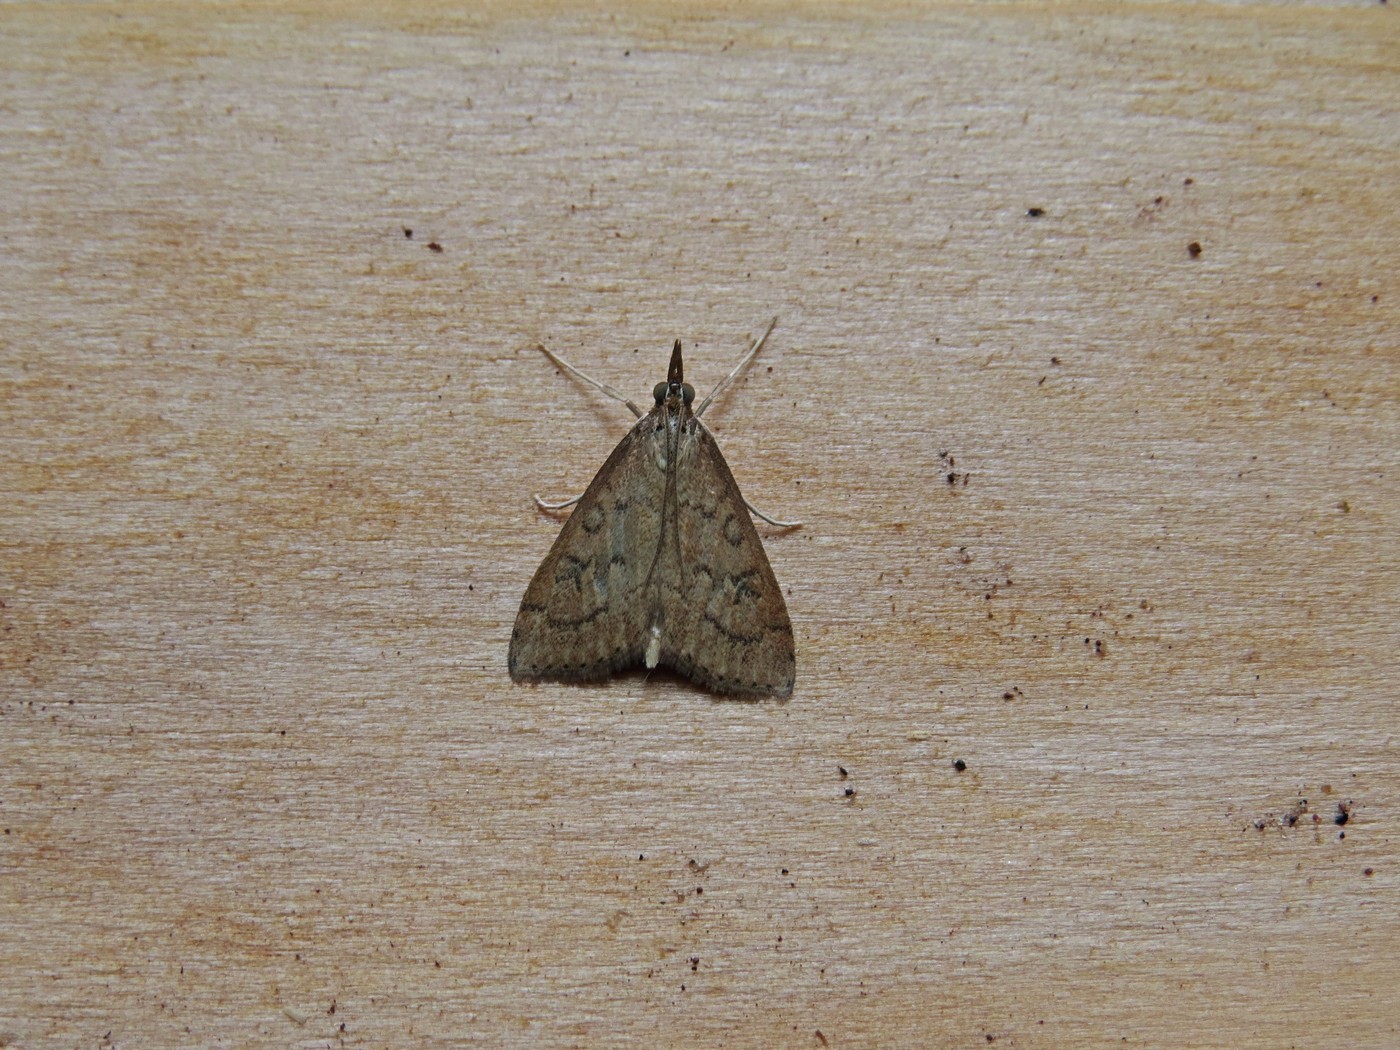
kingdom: Animalia
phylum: Arthropoda
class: Insecta
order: Lepidoptera
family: Crambidae
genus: Udea
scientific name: Udea rubigalis
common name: Celery leaftier moth
